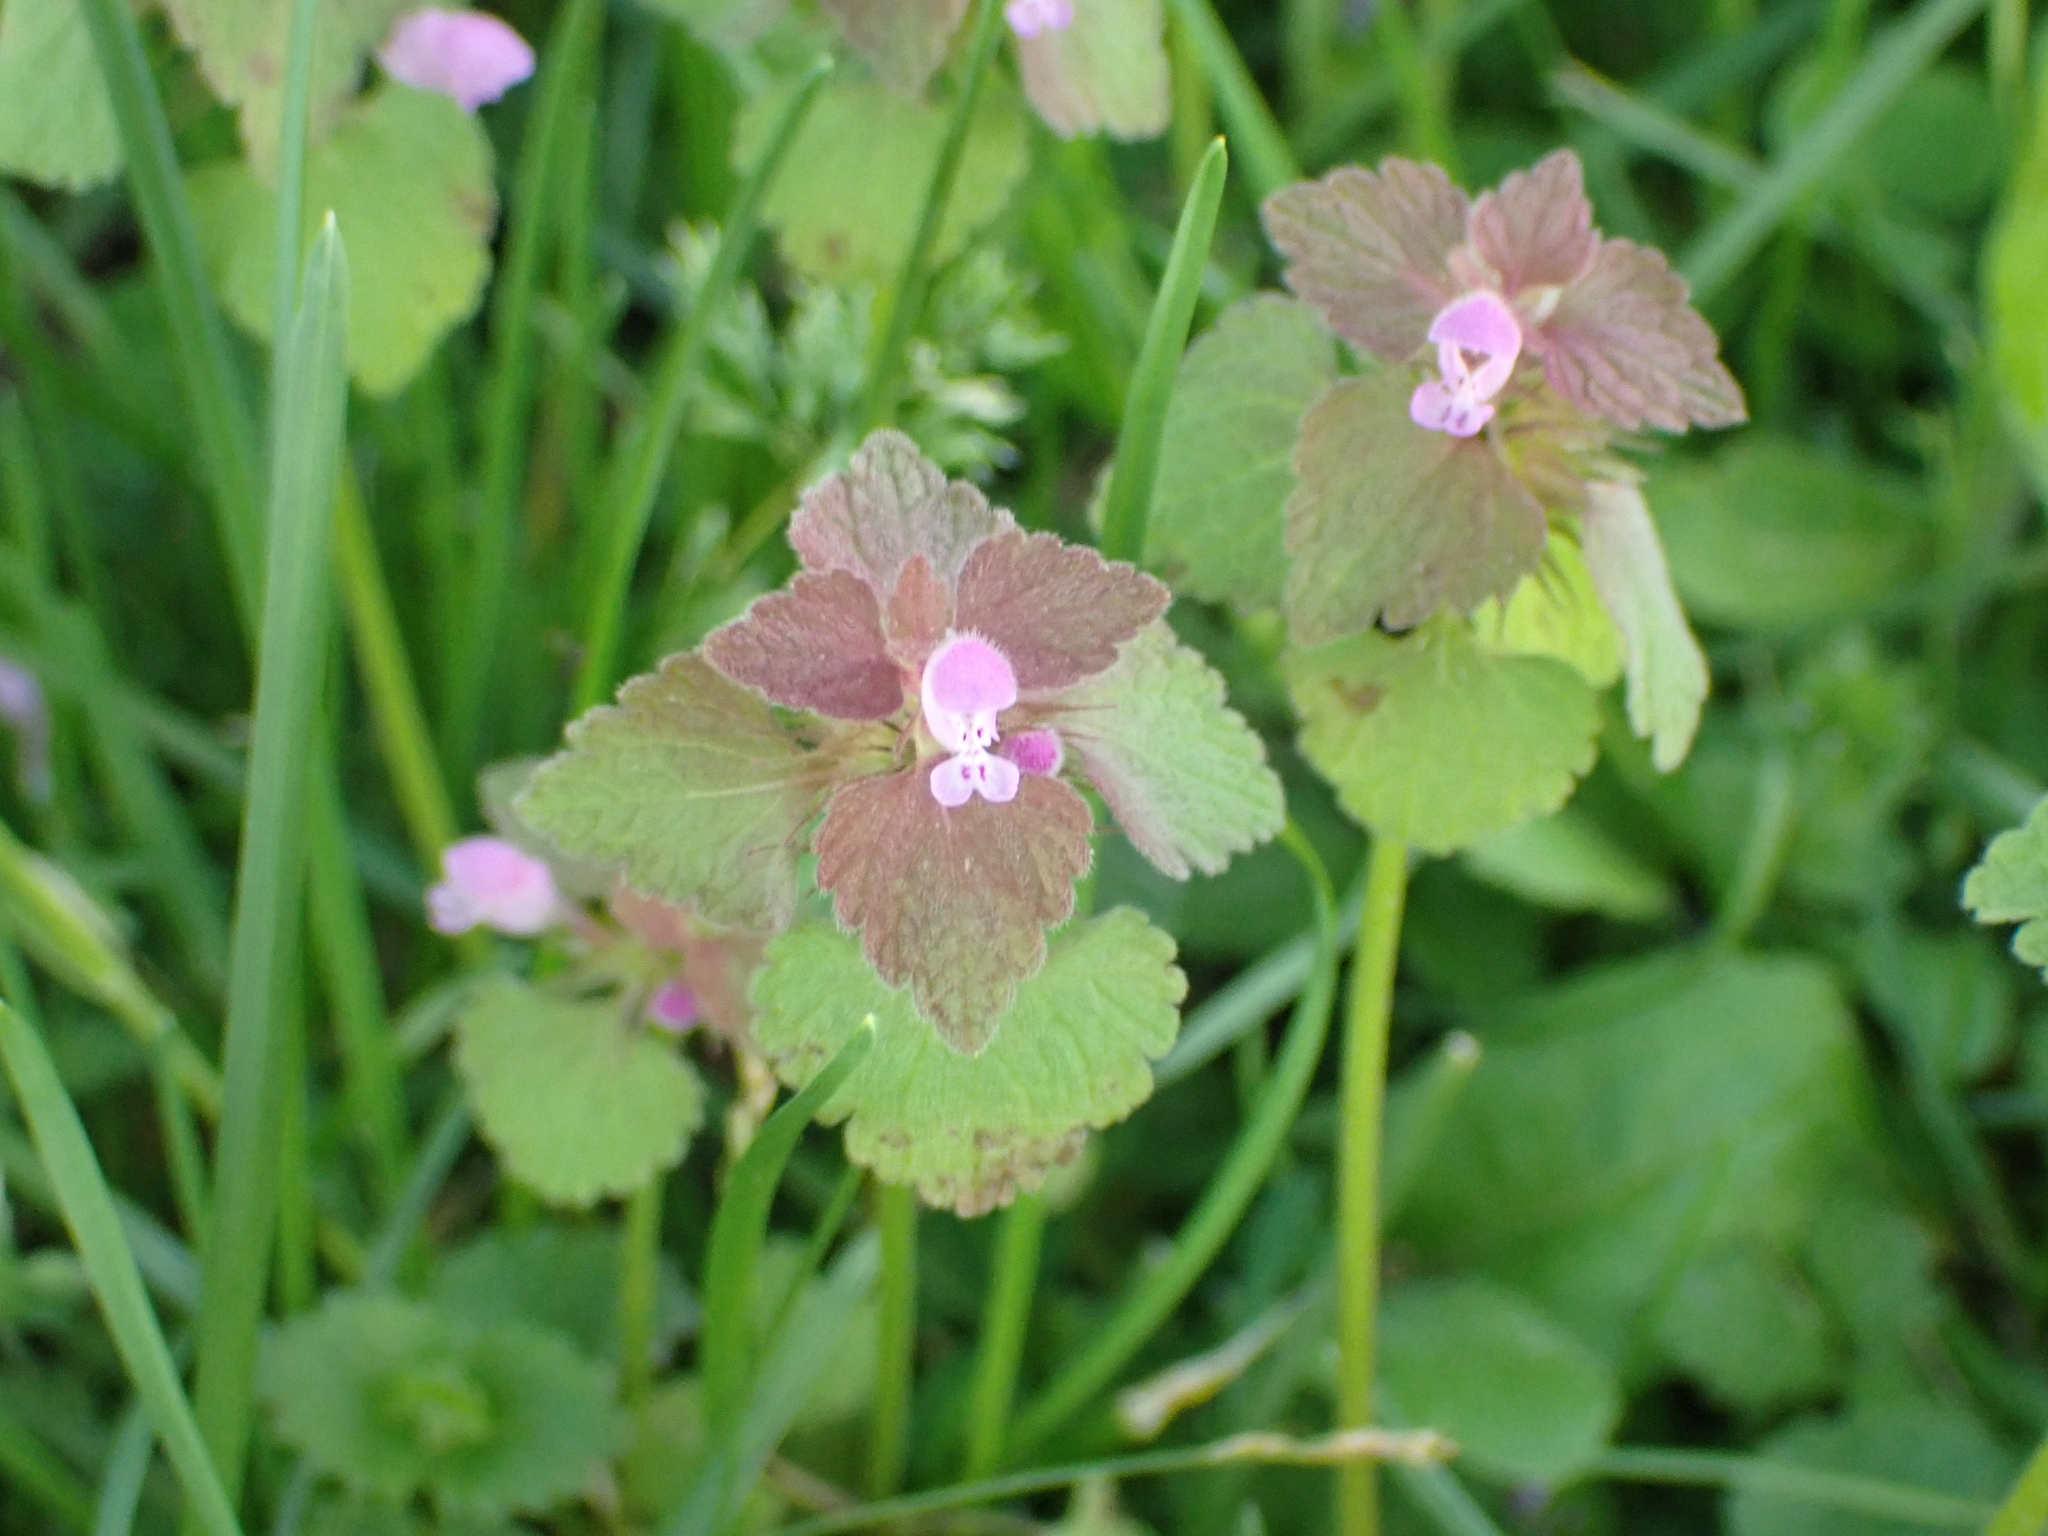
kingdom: Plantae
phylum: Tracheophyta
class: Magnoliopsida
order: Lamiales
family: Lamiaceae
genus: Lamium
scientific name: Lamium purpureum
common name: Red dead-nettle
